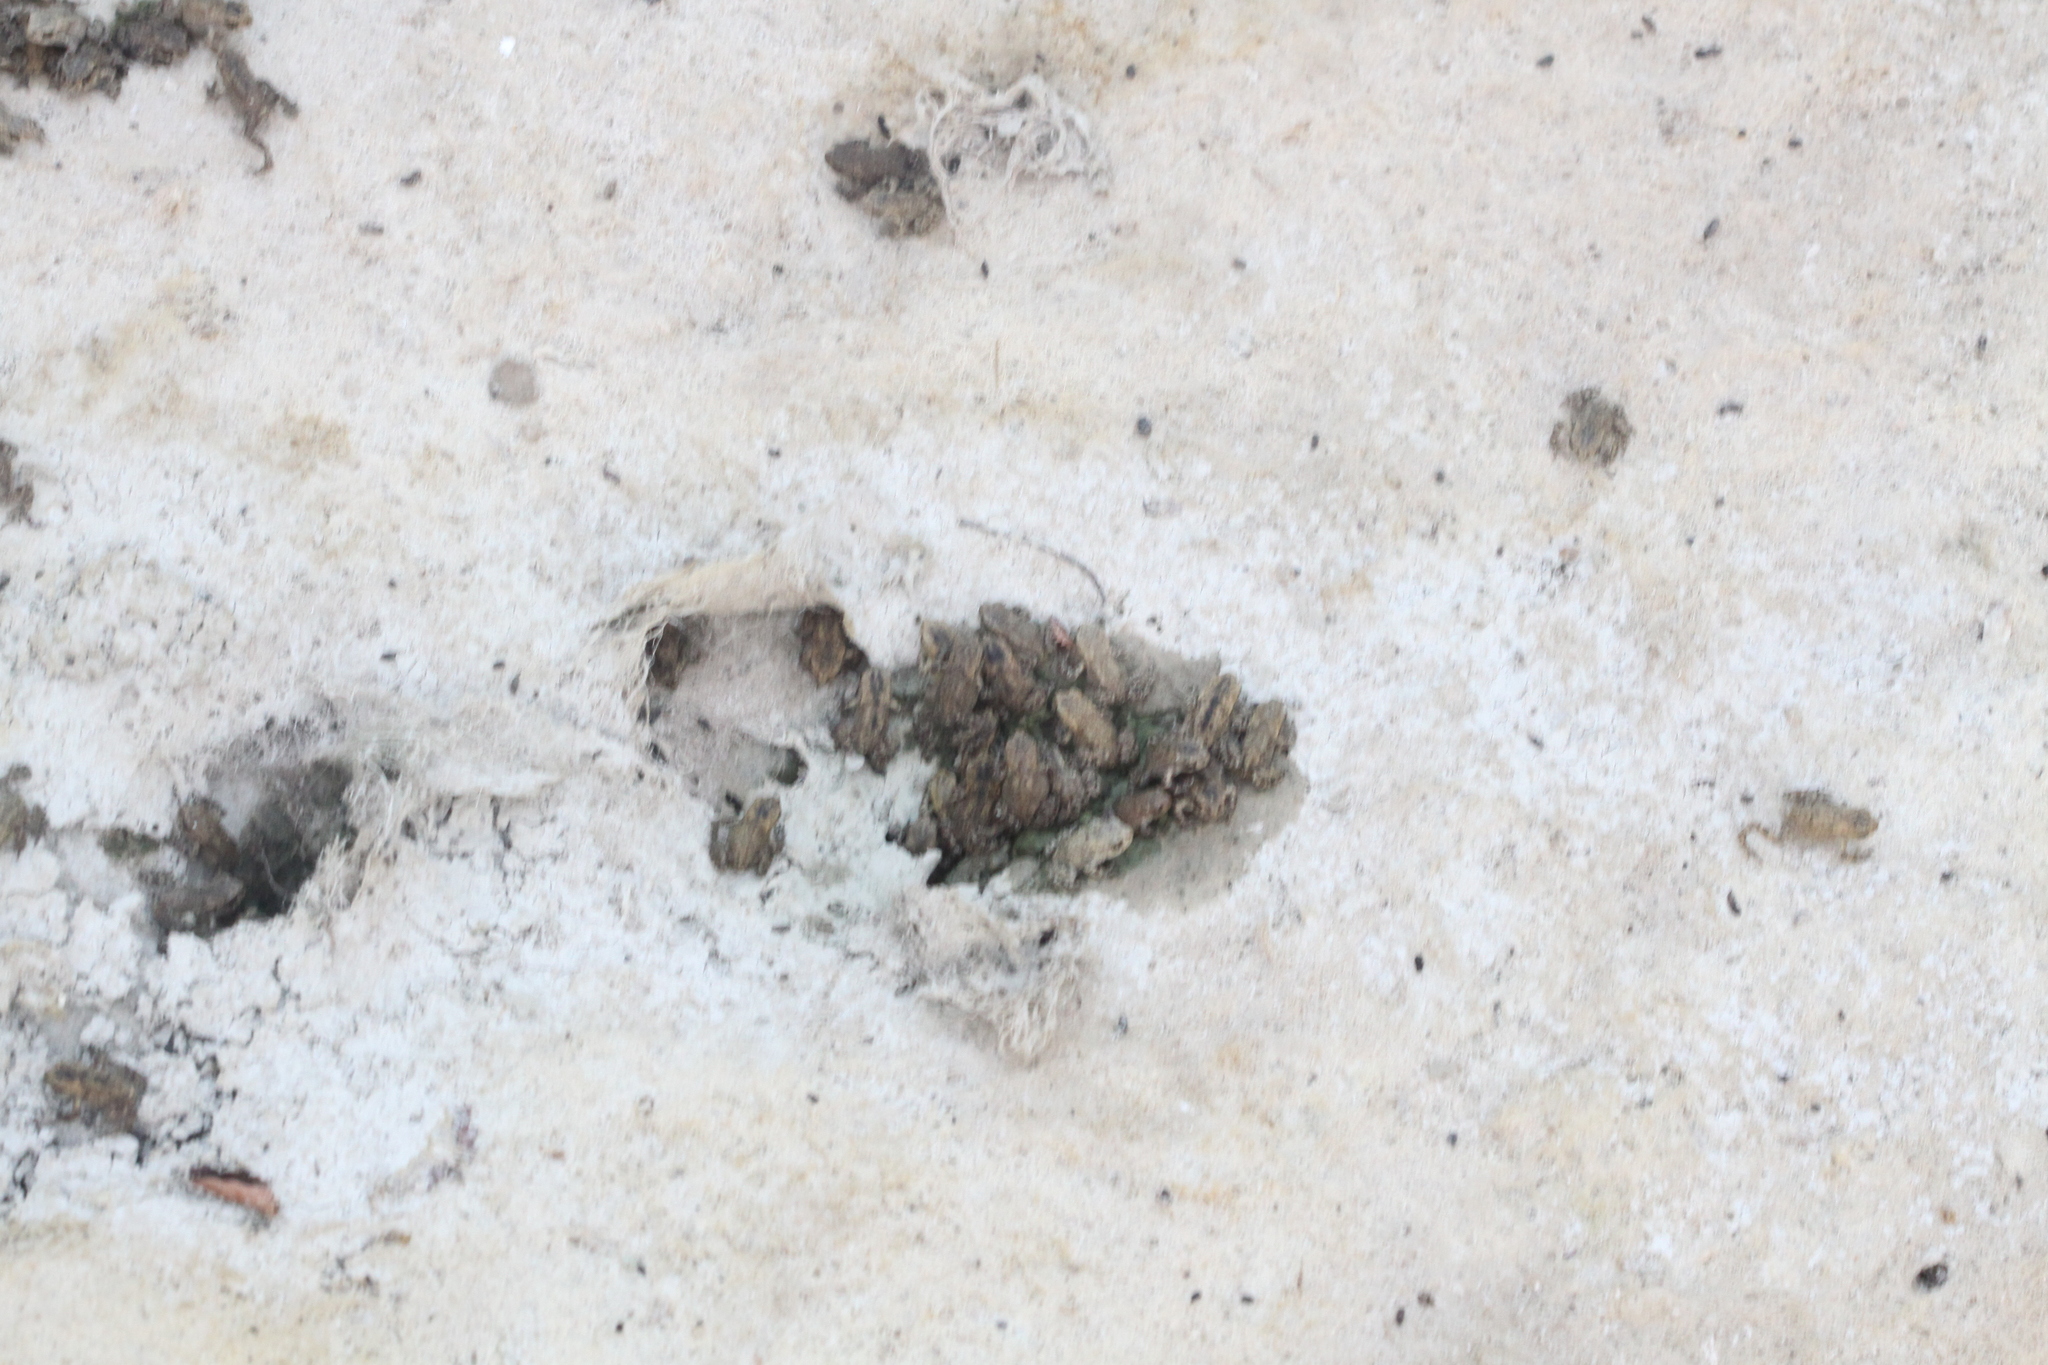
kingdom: Animalia
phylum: Chordata
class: Amphibia
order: Anura
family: Bufonidae
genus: Bufo
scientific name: Bufo spinosus
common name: Western common toad
